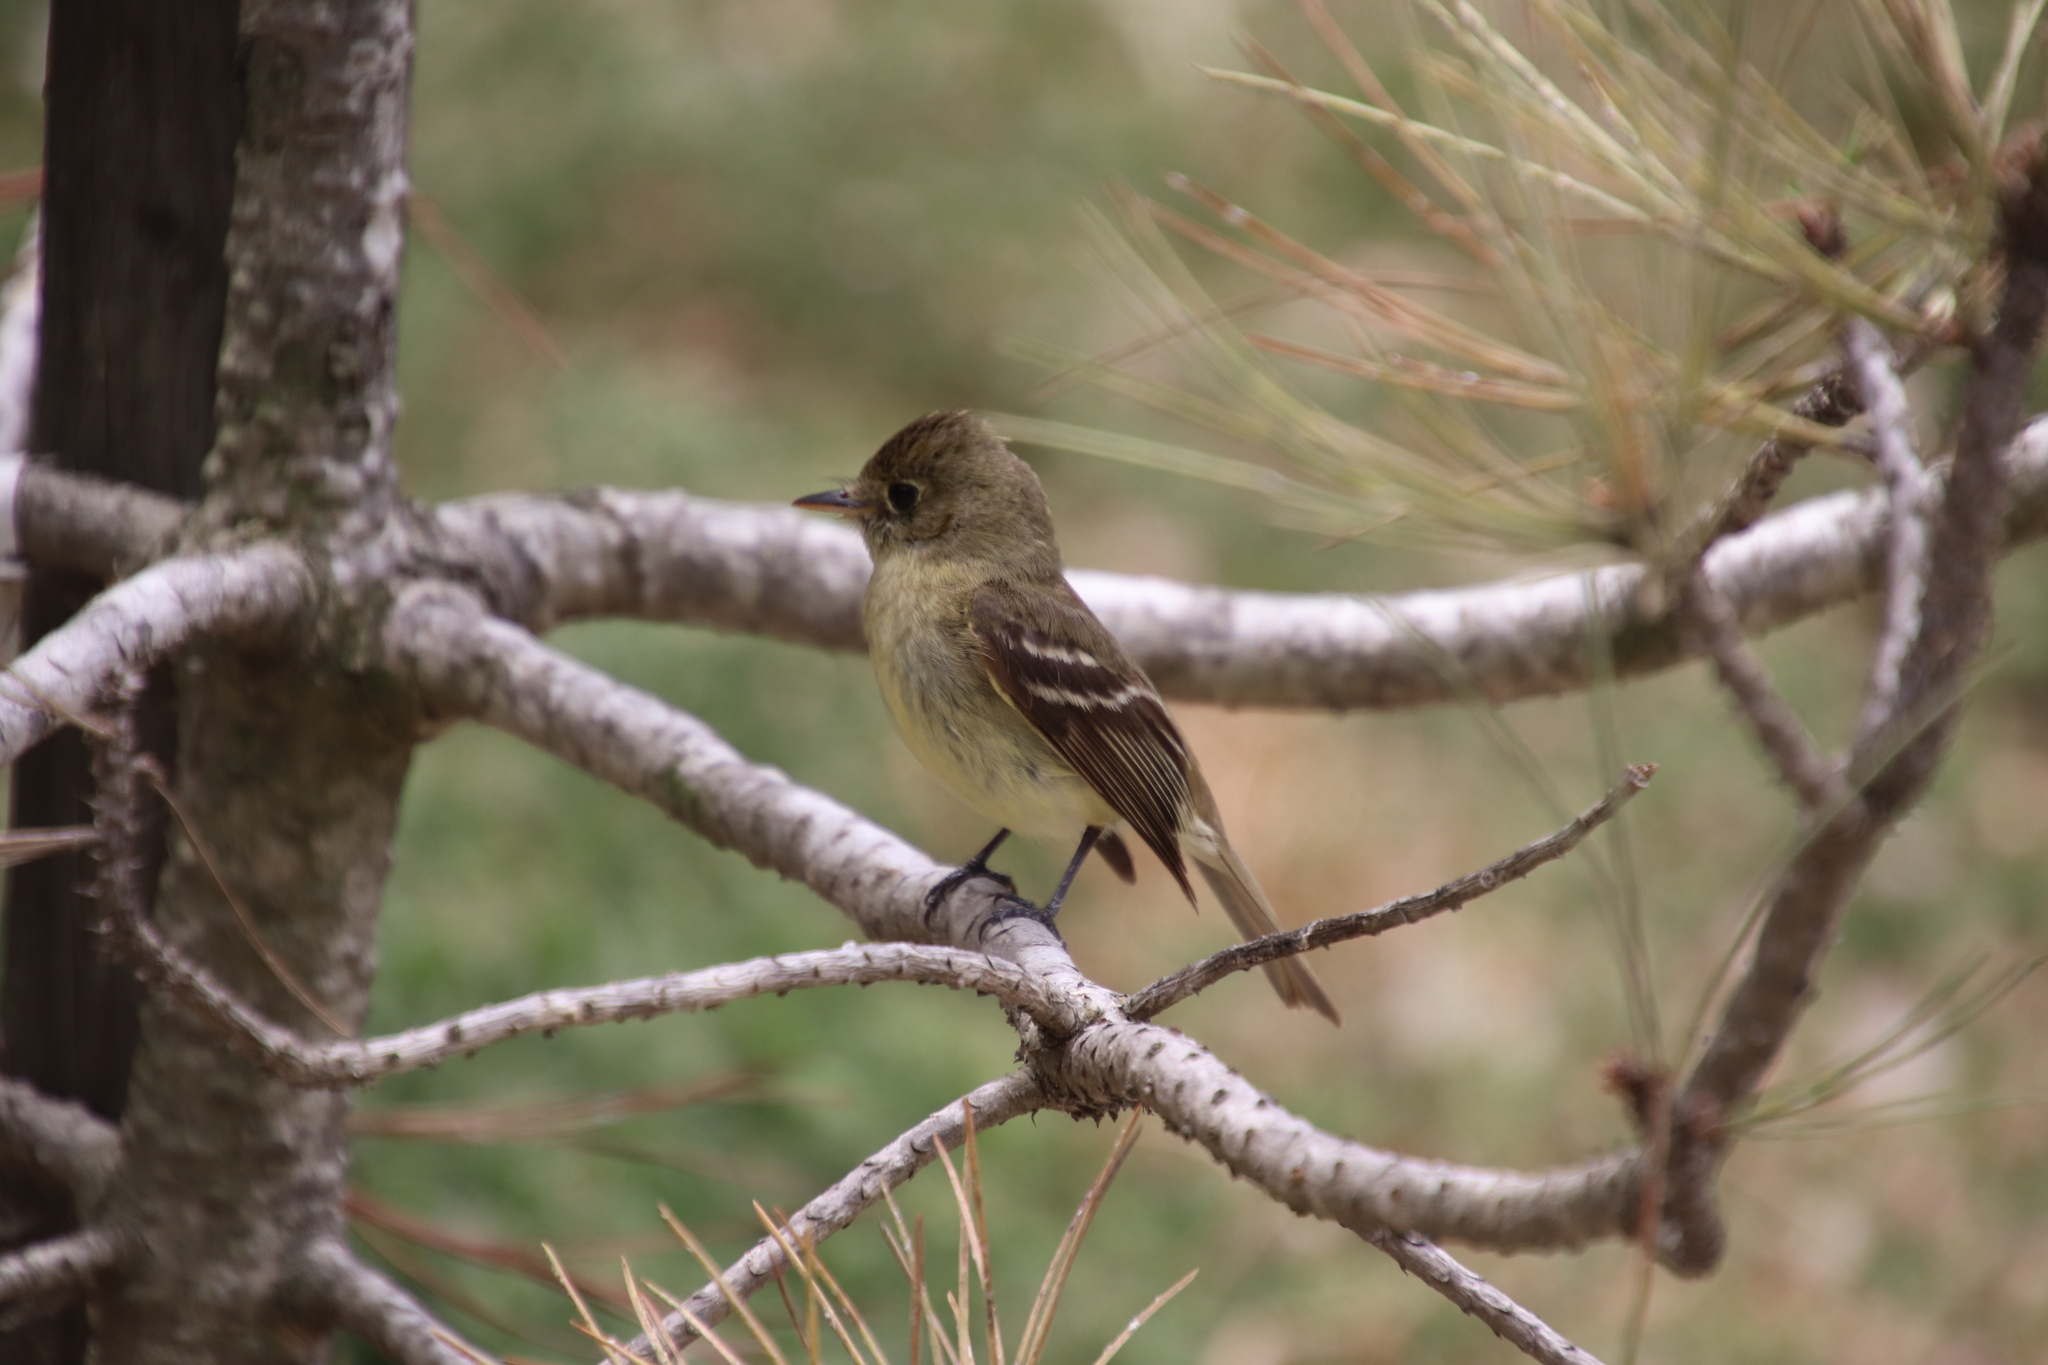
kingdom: Animalia
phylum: Chordata
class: Aves
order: Passeriformes
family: Tyrannidae
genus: Empidonax
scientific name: Empidonax difficilis
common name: Pacific-slope flycatcher
